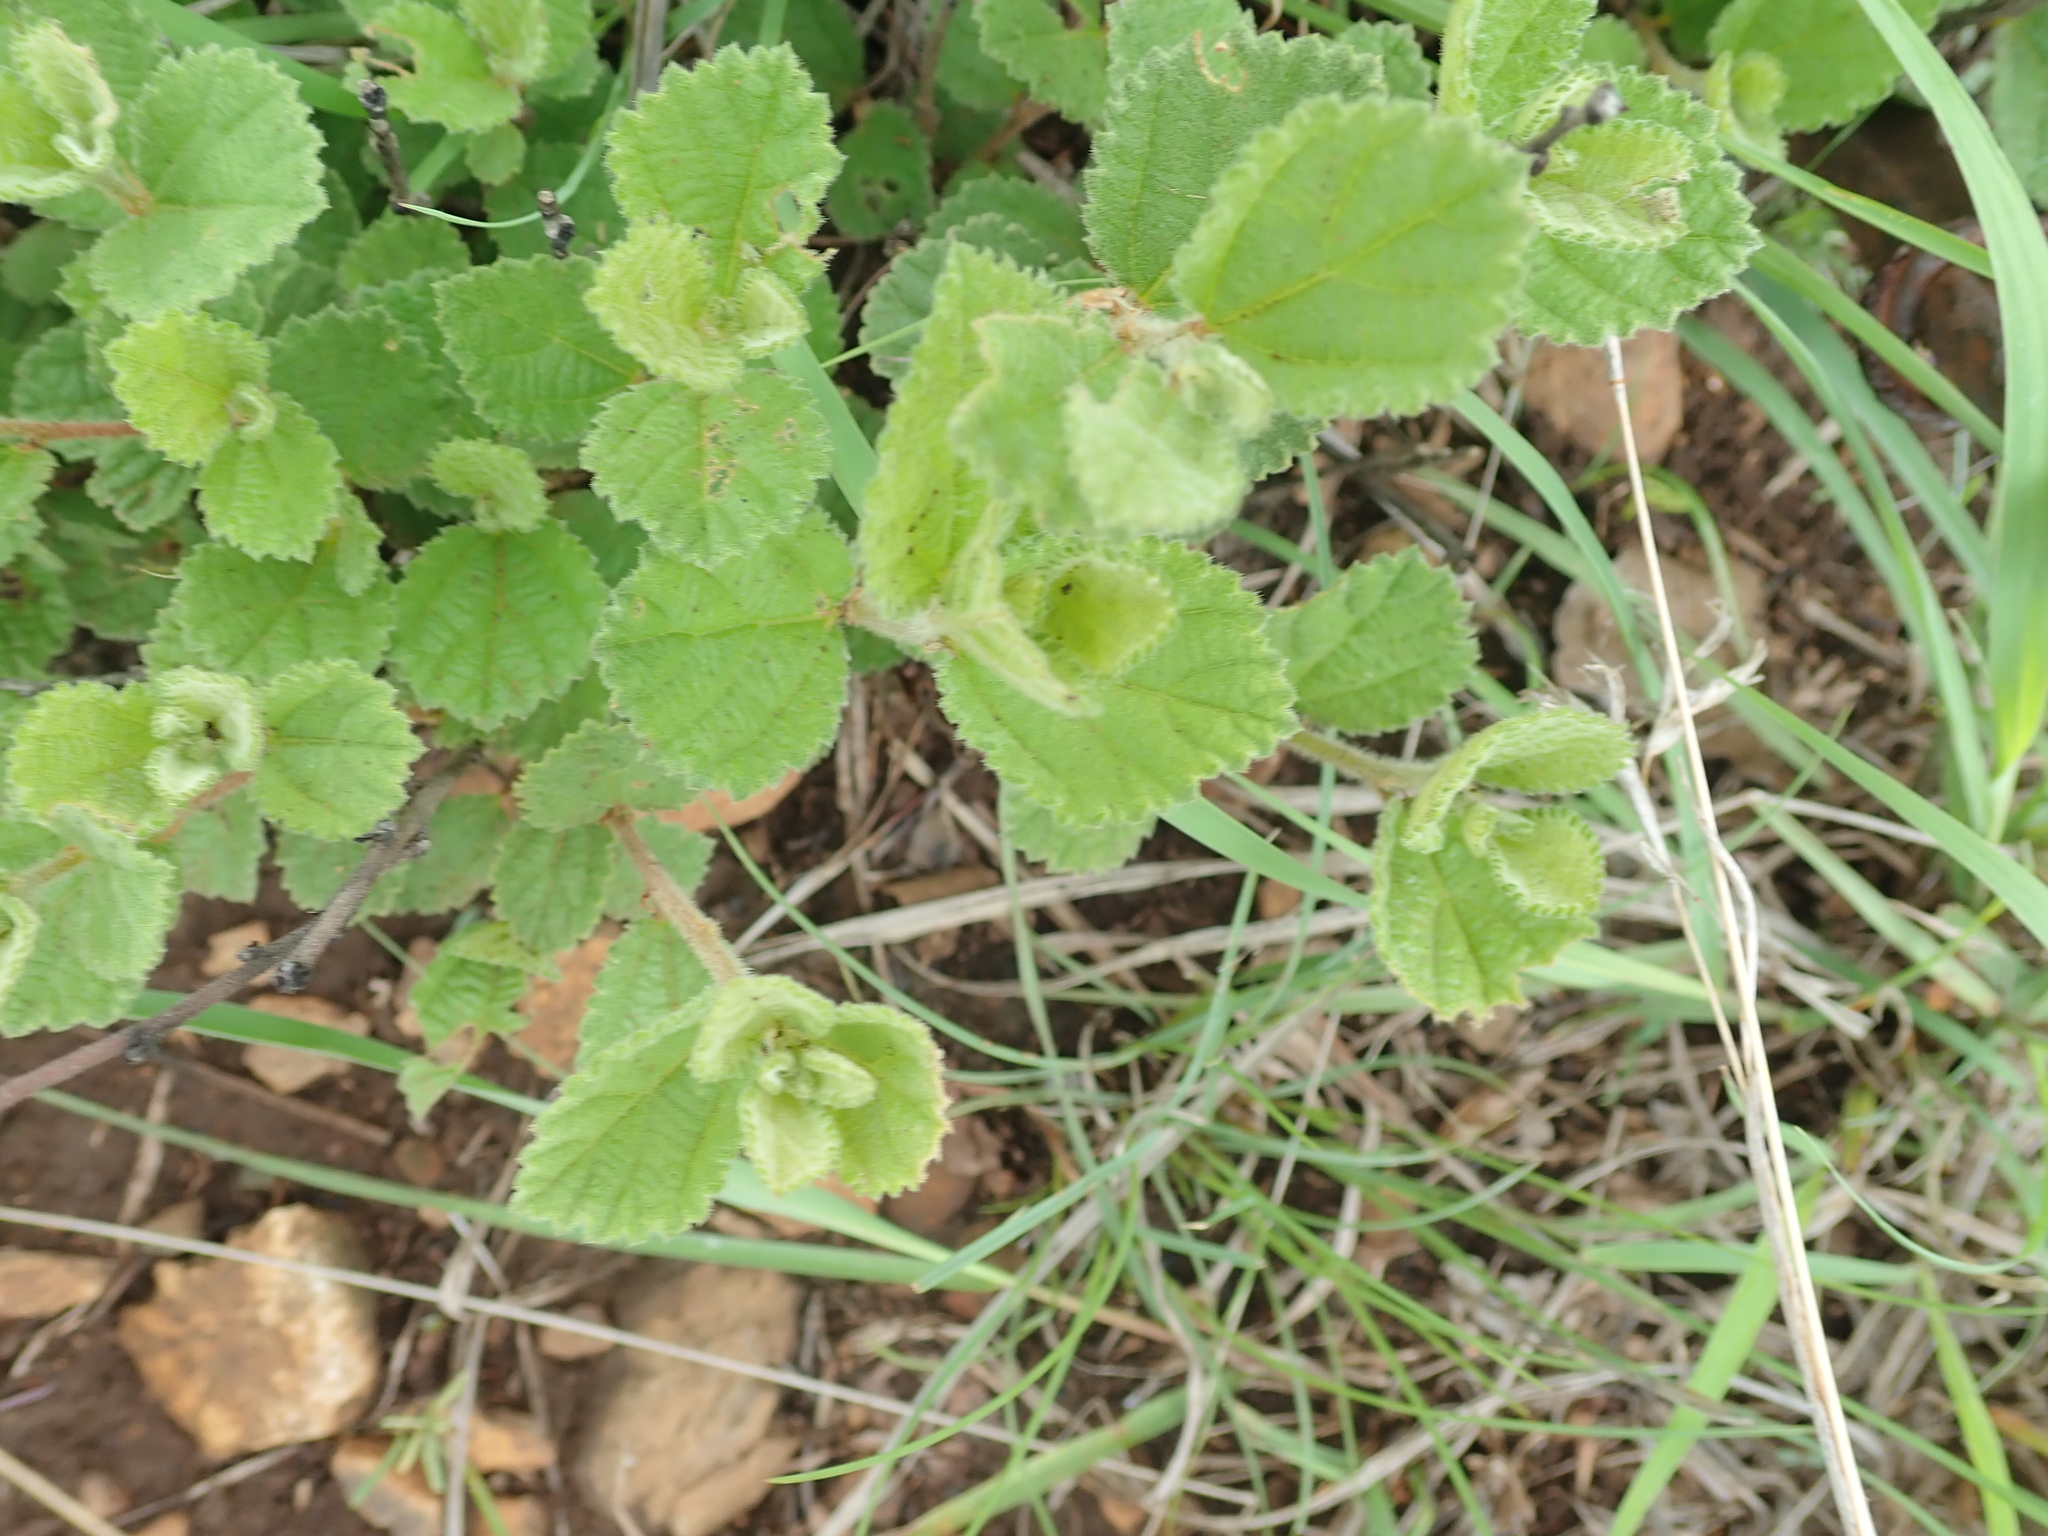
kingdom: Plantae
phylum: Tracheophyta
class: Magnoliopsida
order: Malvales
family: Malvaceae
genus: Grewia
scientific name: Grewia hispida
